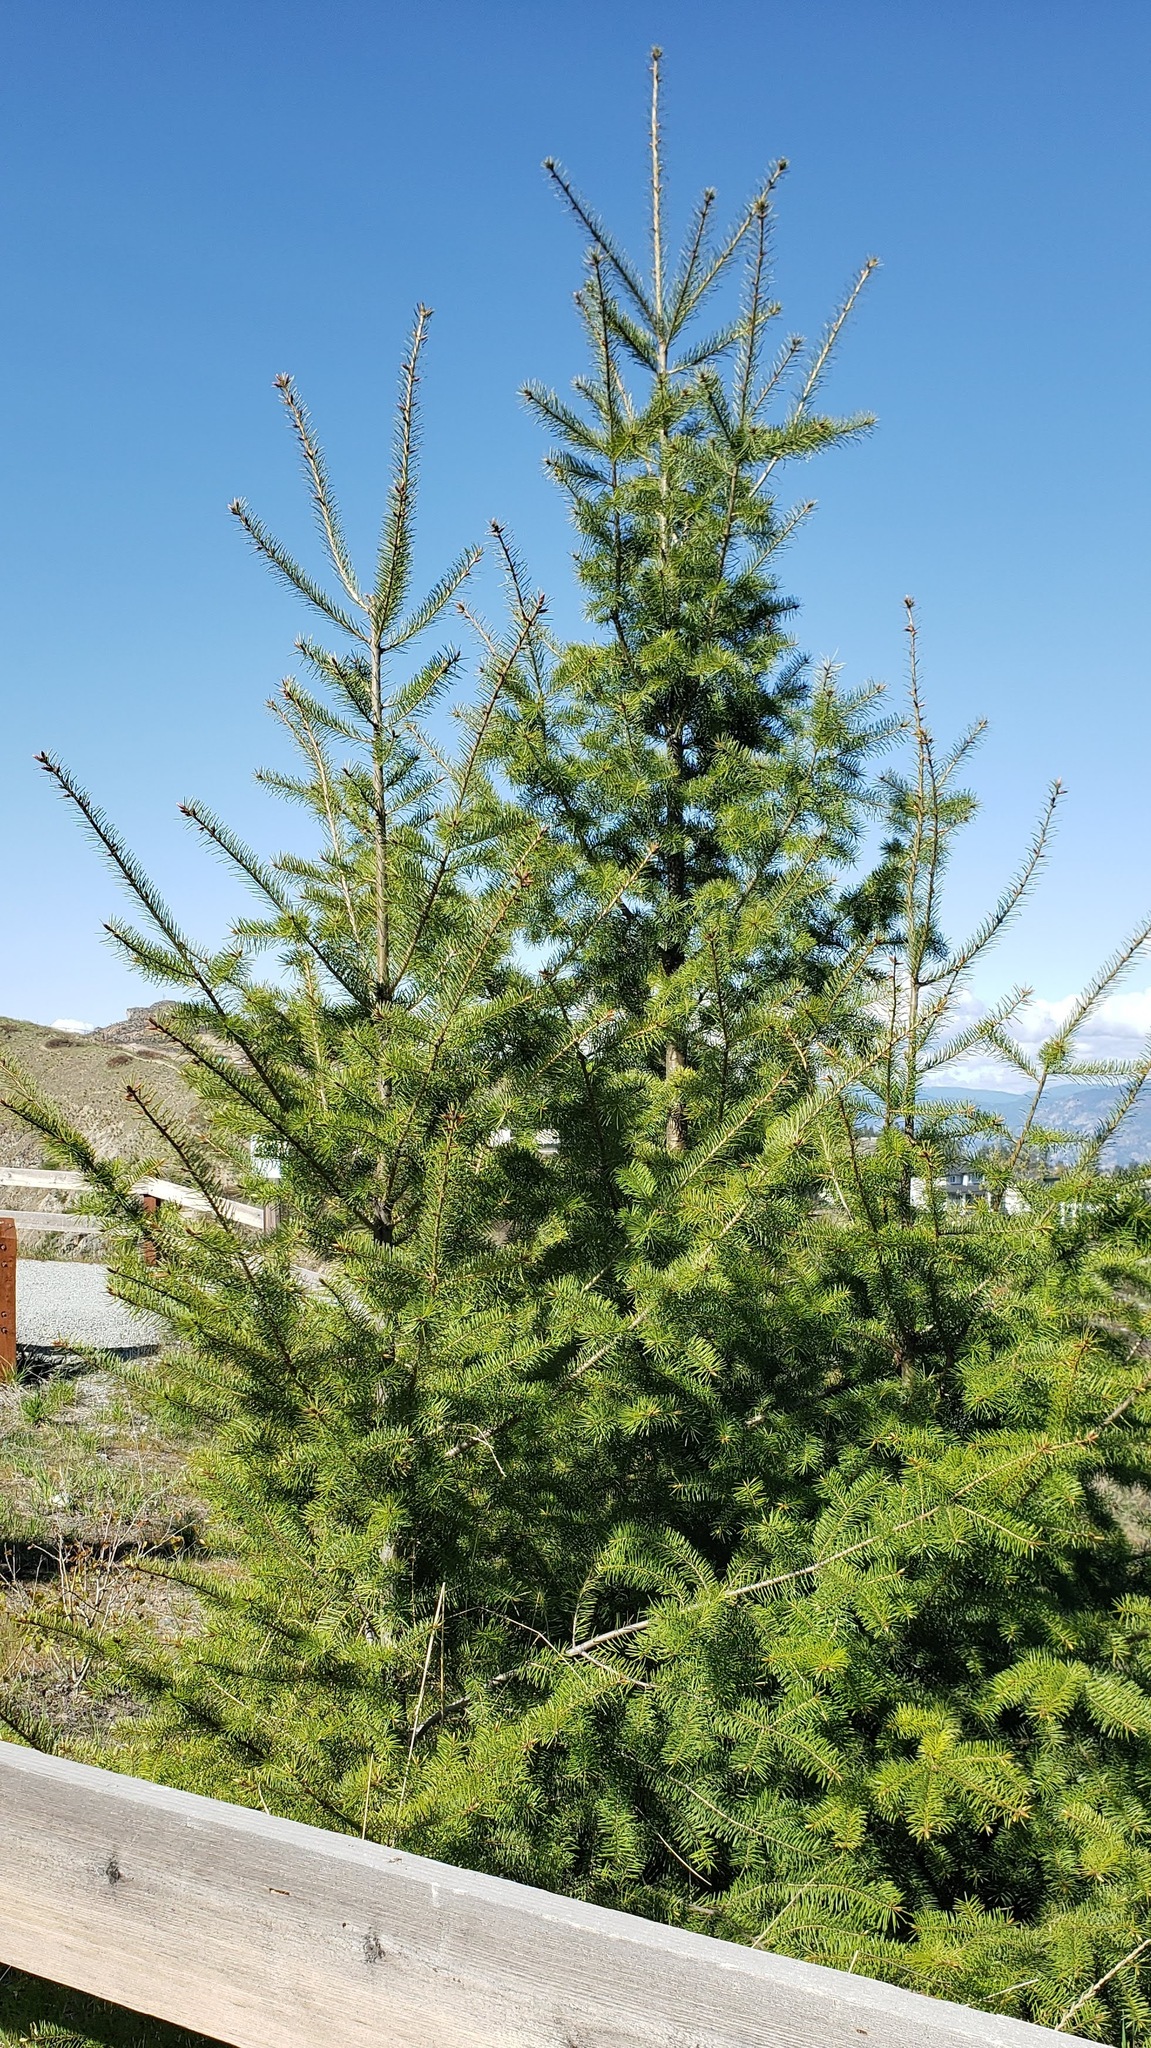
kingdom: Plantae
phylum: Tracheophyta
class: Pinopsida
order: Pinales
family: Pinaceae
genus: Pseudotsuga
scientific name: Pseudotsuga menziesii
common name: Douglas fir
